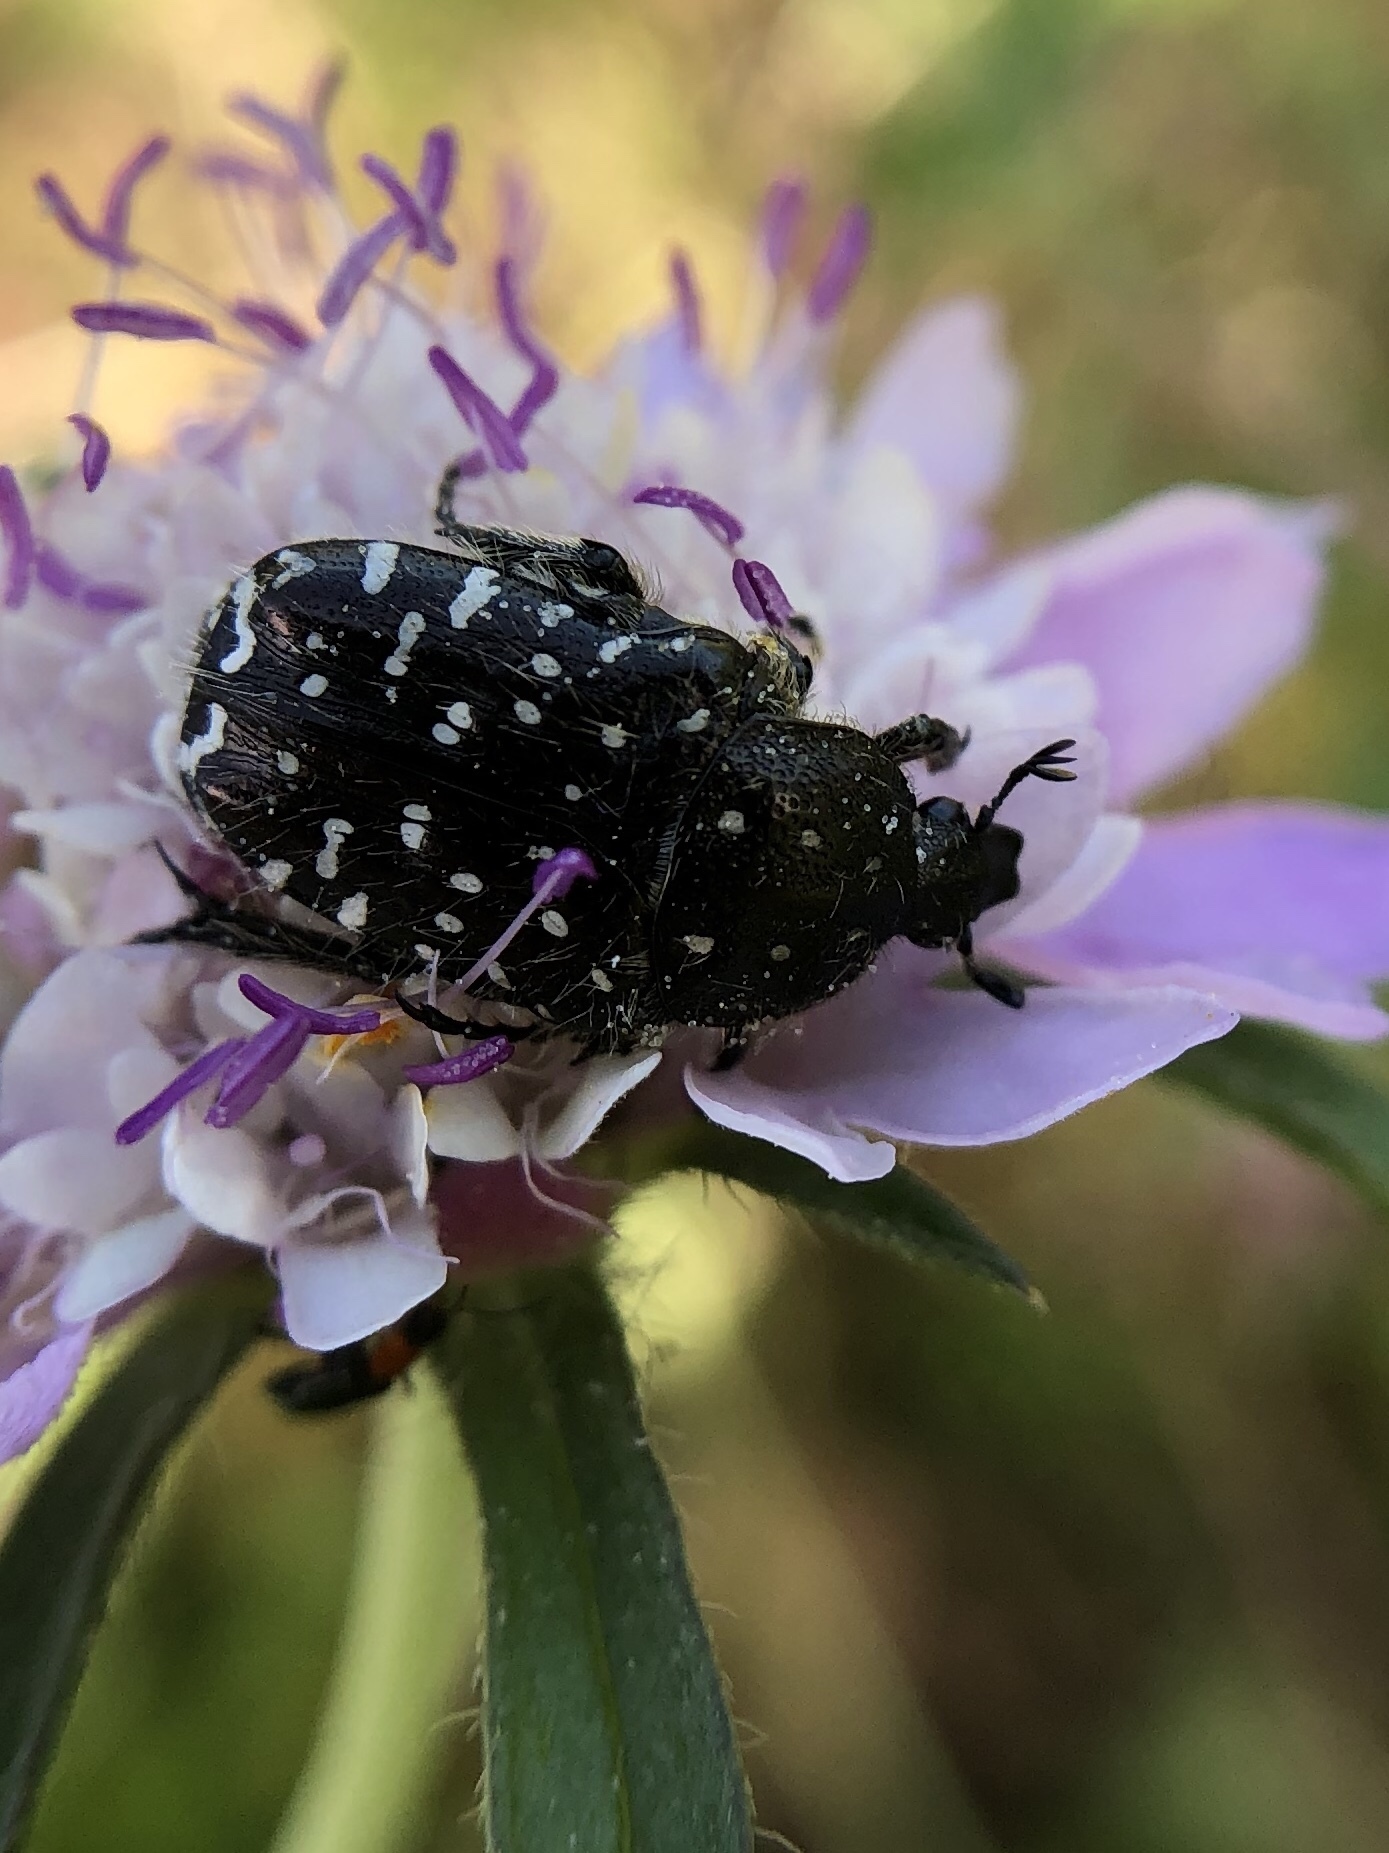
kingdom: Animalia
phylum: Arthropoda
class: Insecta
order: Coleoptera
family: Scarabaeidae
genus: Oxythyrea
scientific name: Oxythyrea funesta
